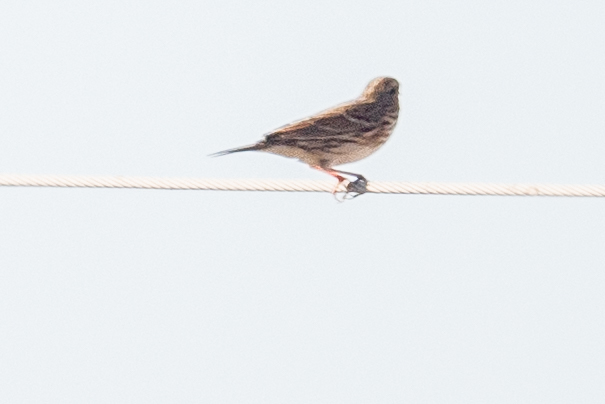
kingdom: Animalia
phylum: Chordata
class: Aves
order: Passeriformes
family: Passerellidae
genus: Passerculus
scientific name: Passerculus sandwichensis
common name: Savannah sparrow
